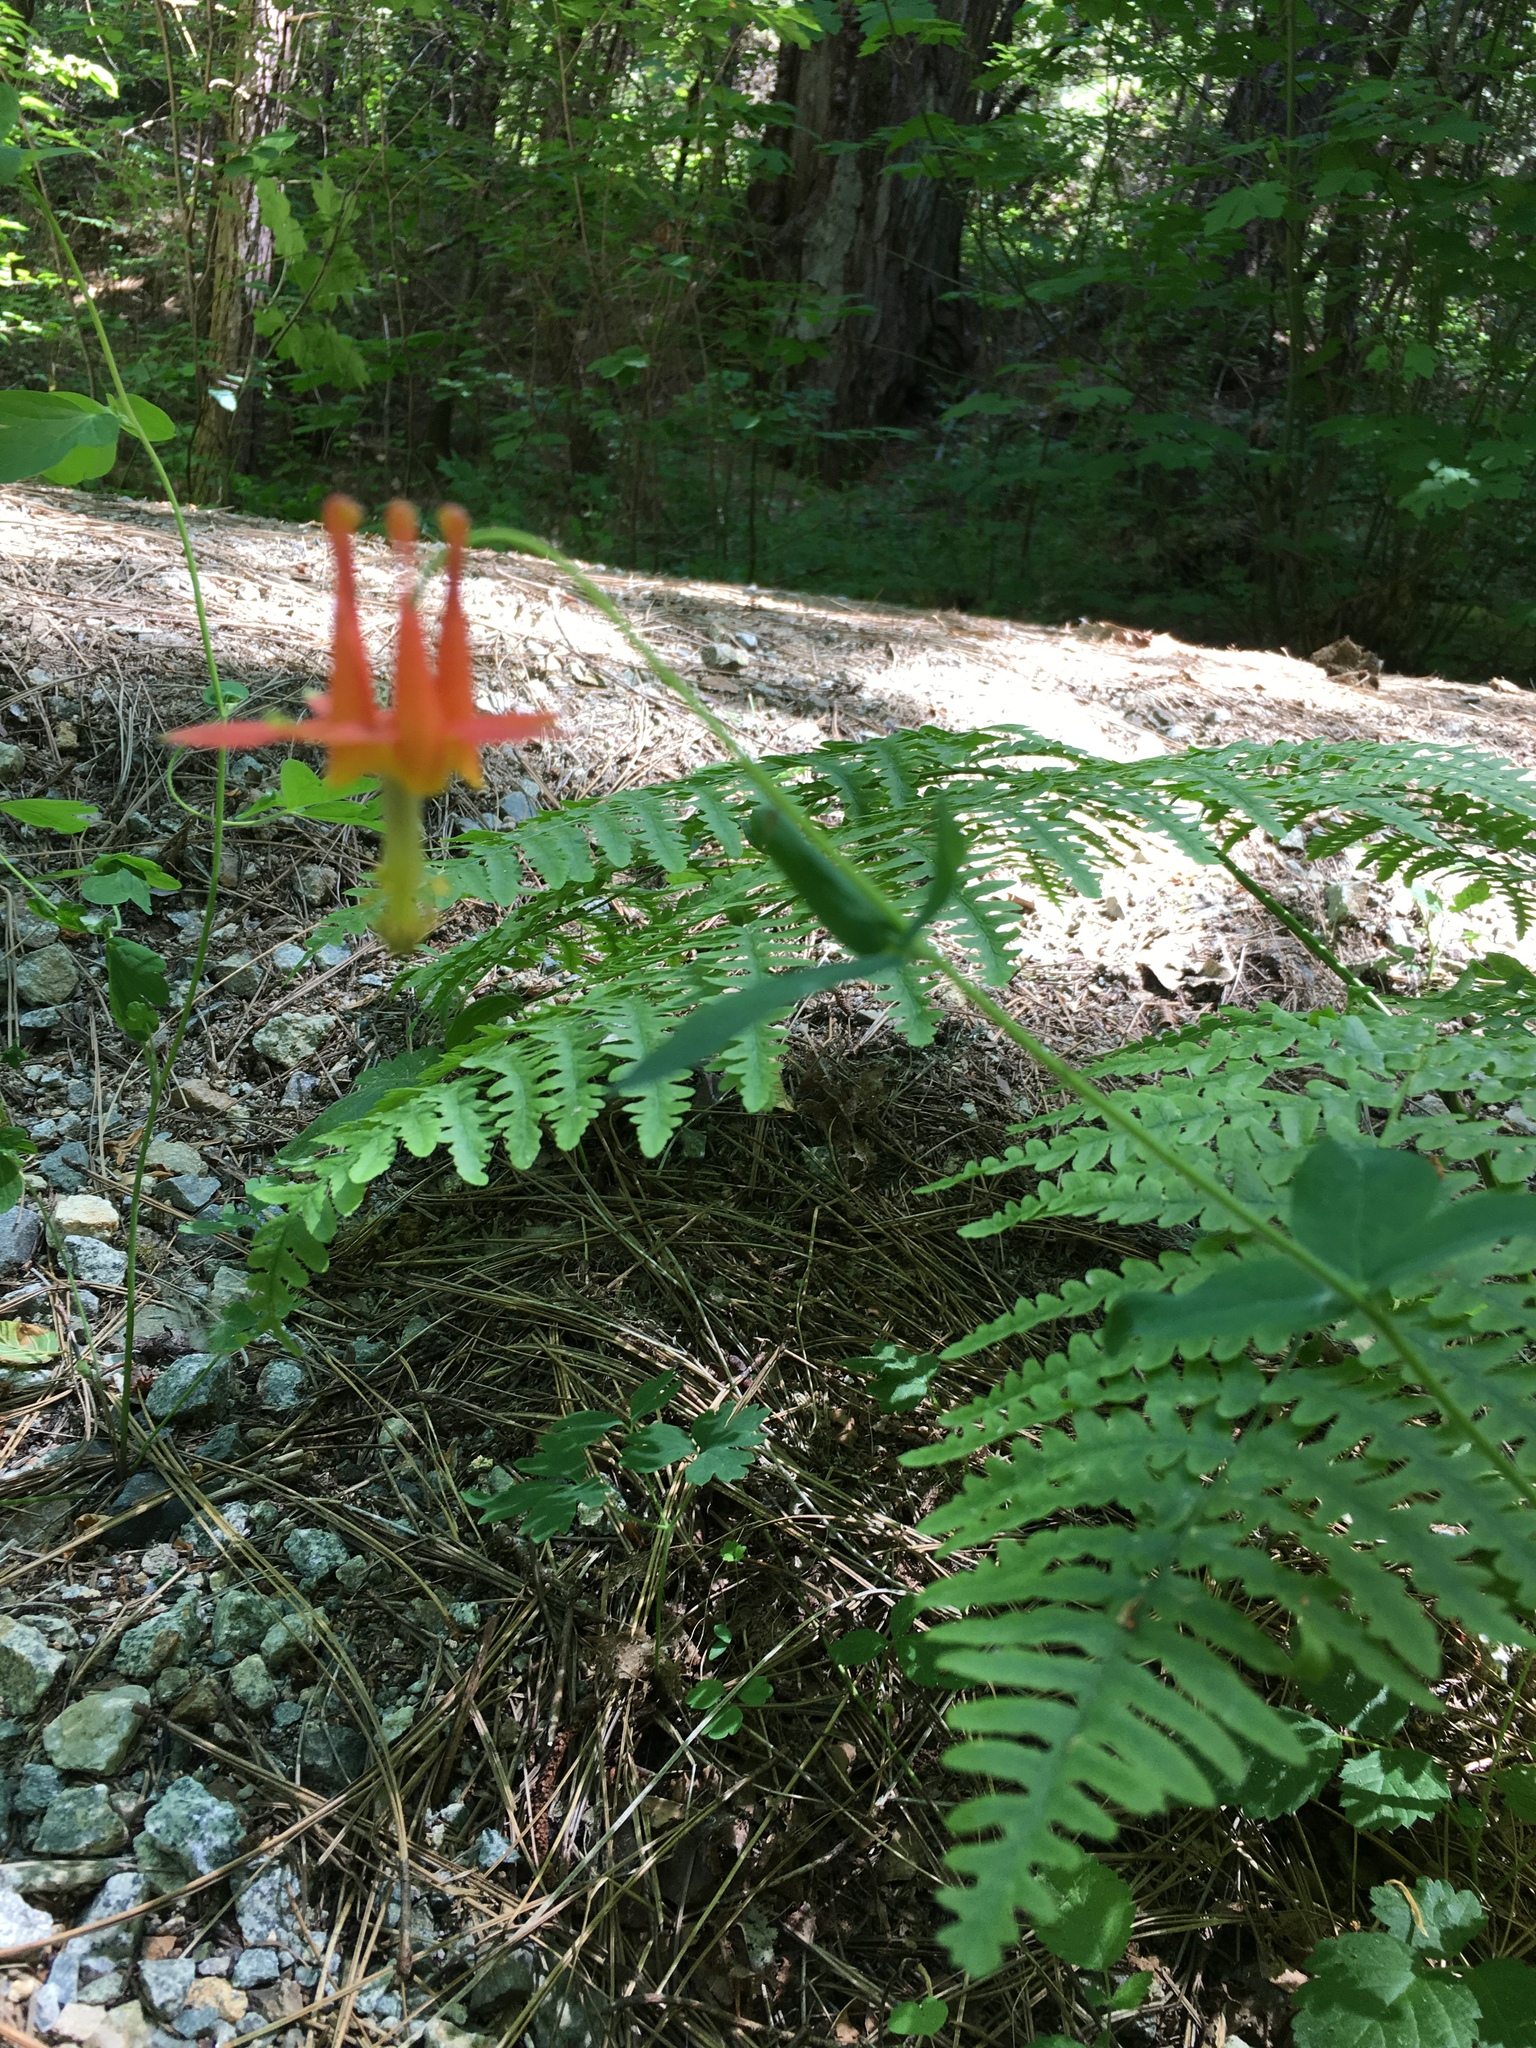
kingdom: Plantae
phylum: Tracheophyta
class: Magnoliopsida
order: Ranunculales
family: Ranunculaceae
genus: Aquilegia
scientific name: Aquilegia formosa
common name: Sitka columbine
